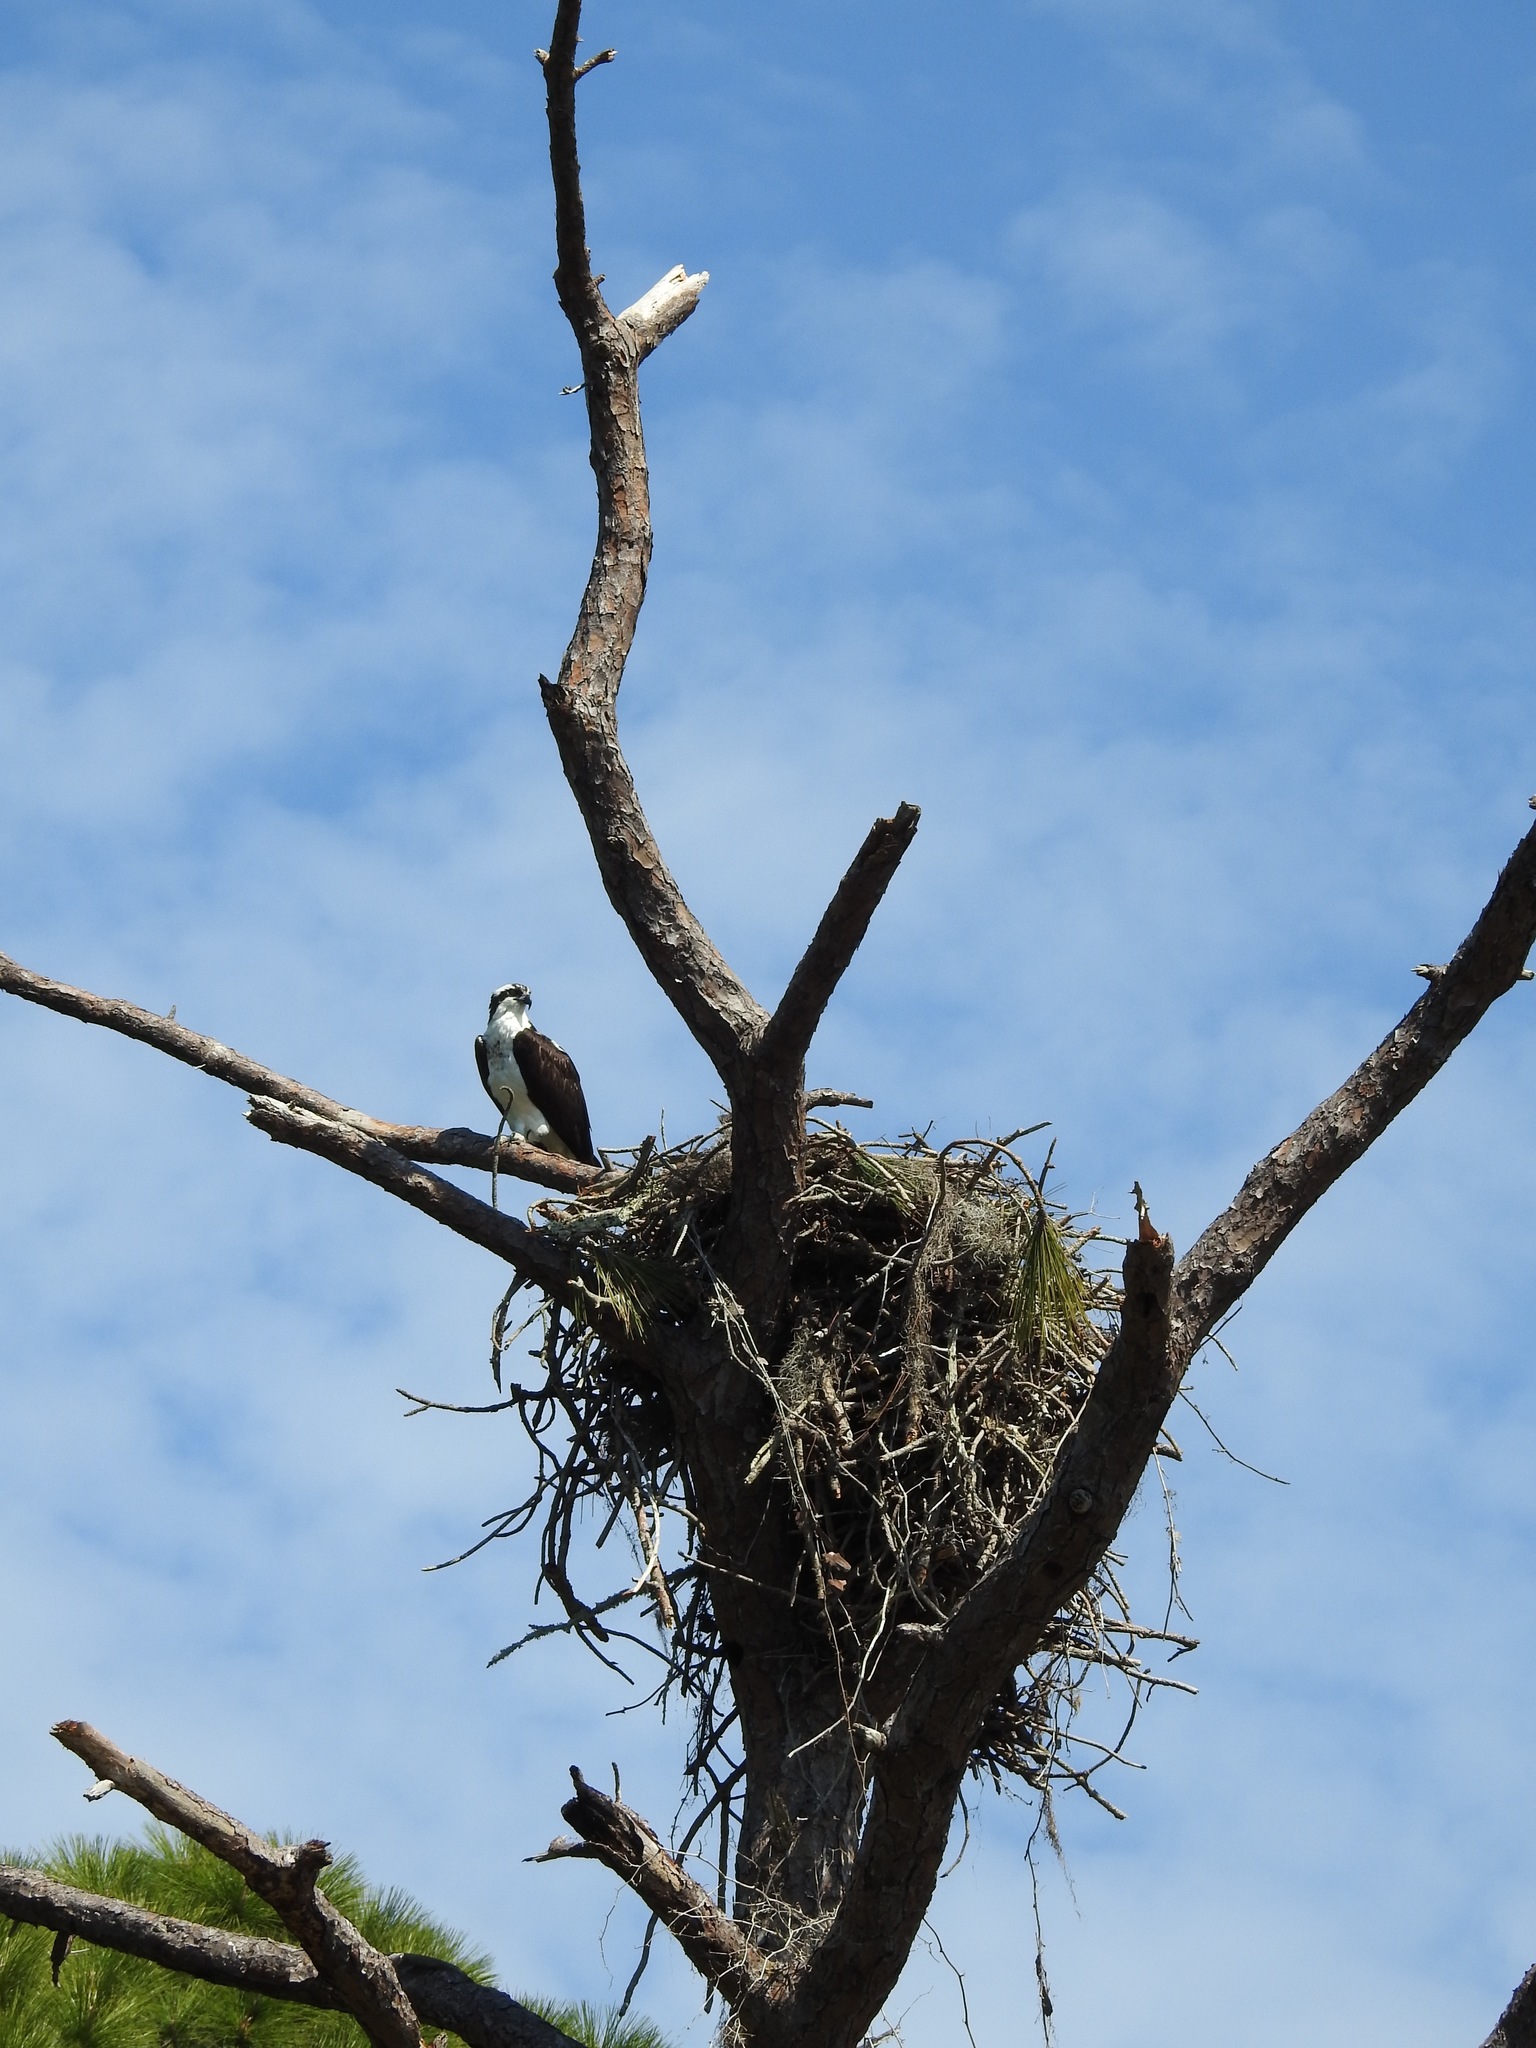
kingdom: Animalia
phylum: Chordata
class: Aves
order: Accipitriformes
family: Pandionidae
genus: Pandion
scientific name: Pandion haliaetus
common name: Osprey
